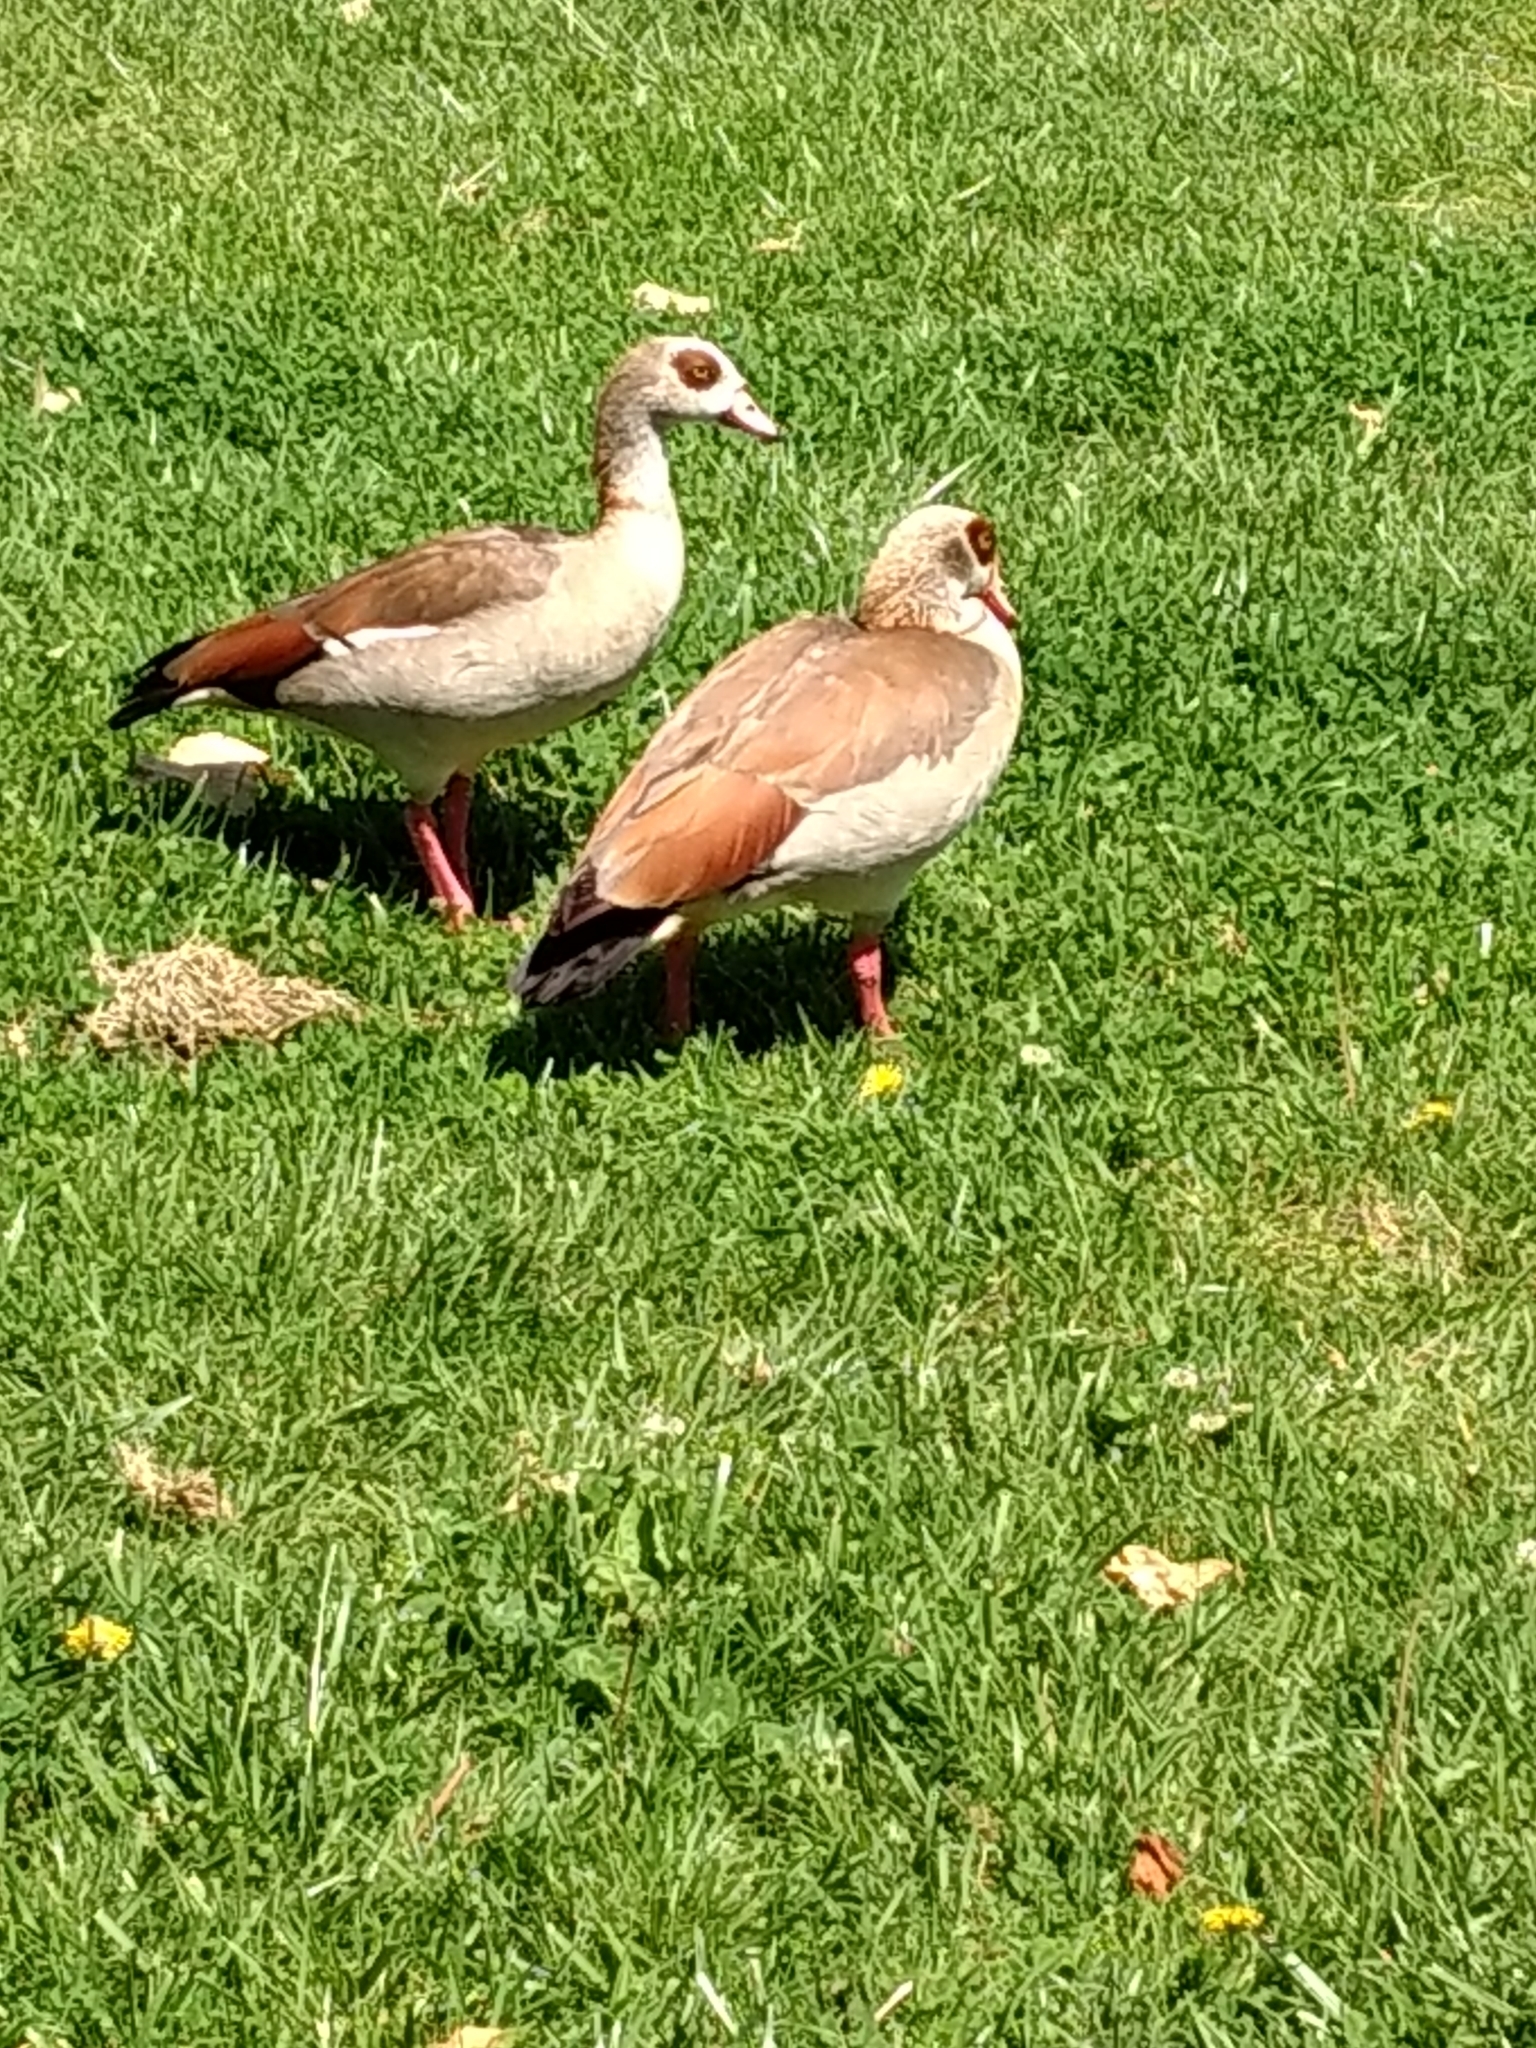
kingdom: Animalia
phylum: Chordata
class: Aves
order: Anseriformes
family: Anatidae
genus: Alopochen
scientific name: Alopochen aegyptiaca
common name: Egyptian goose
